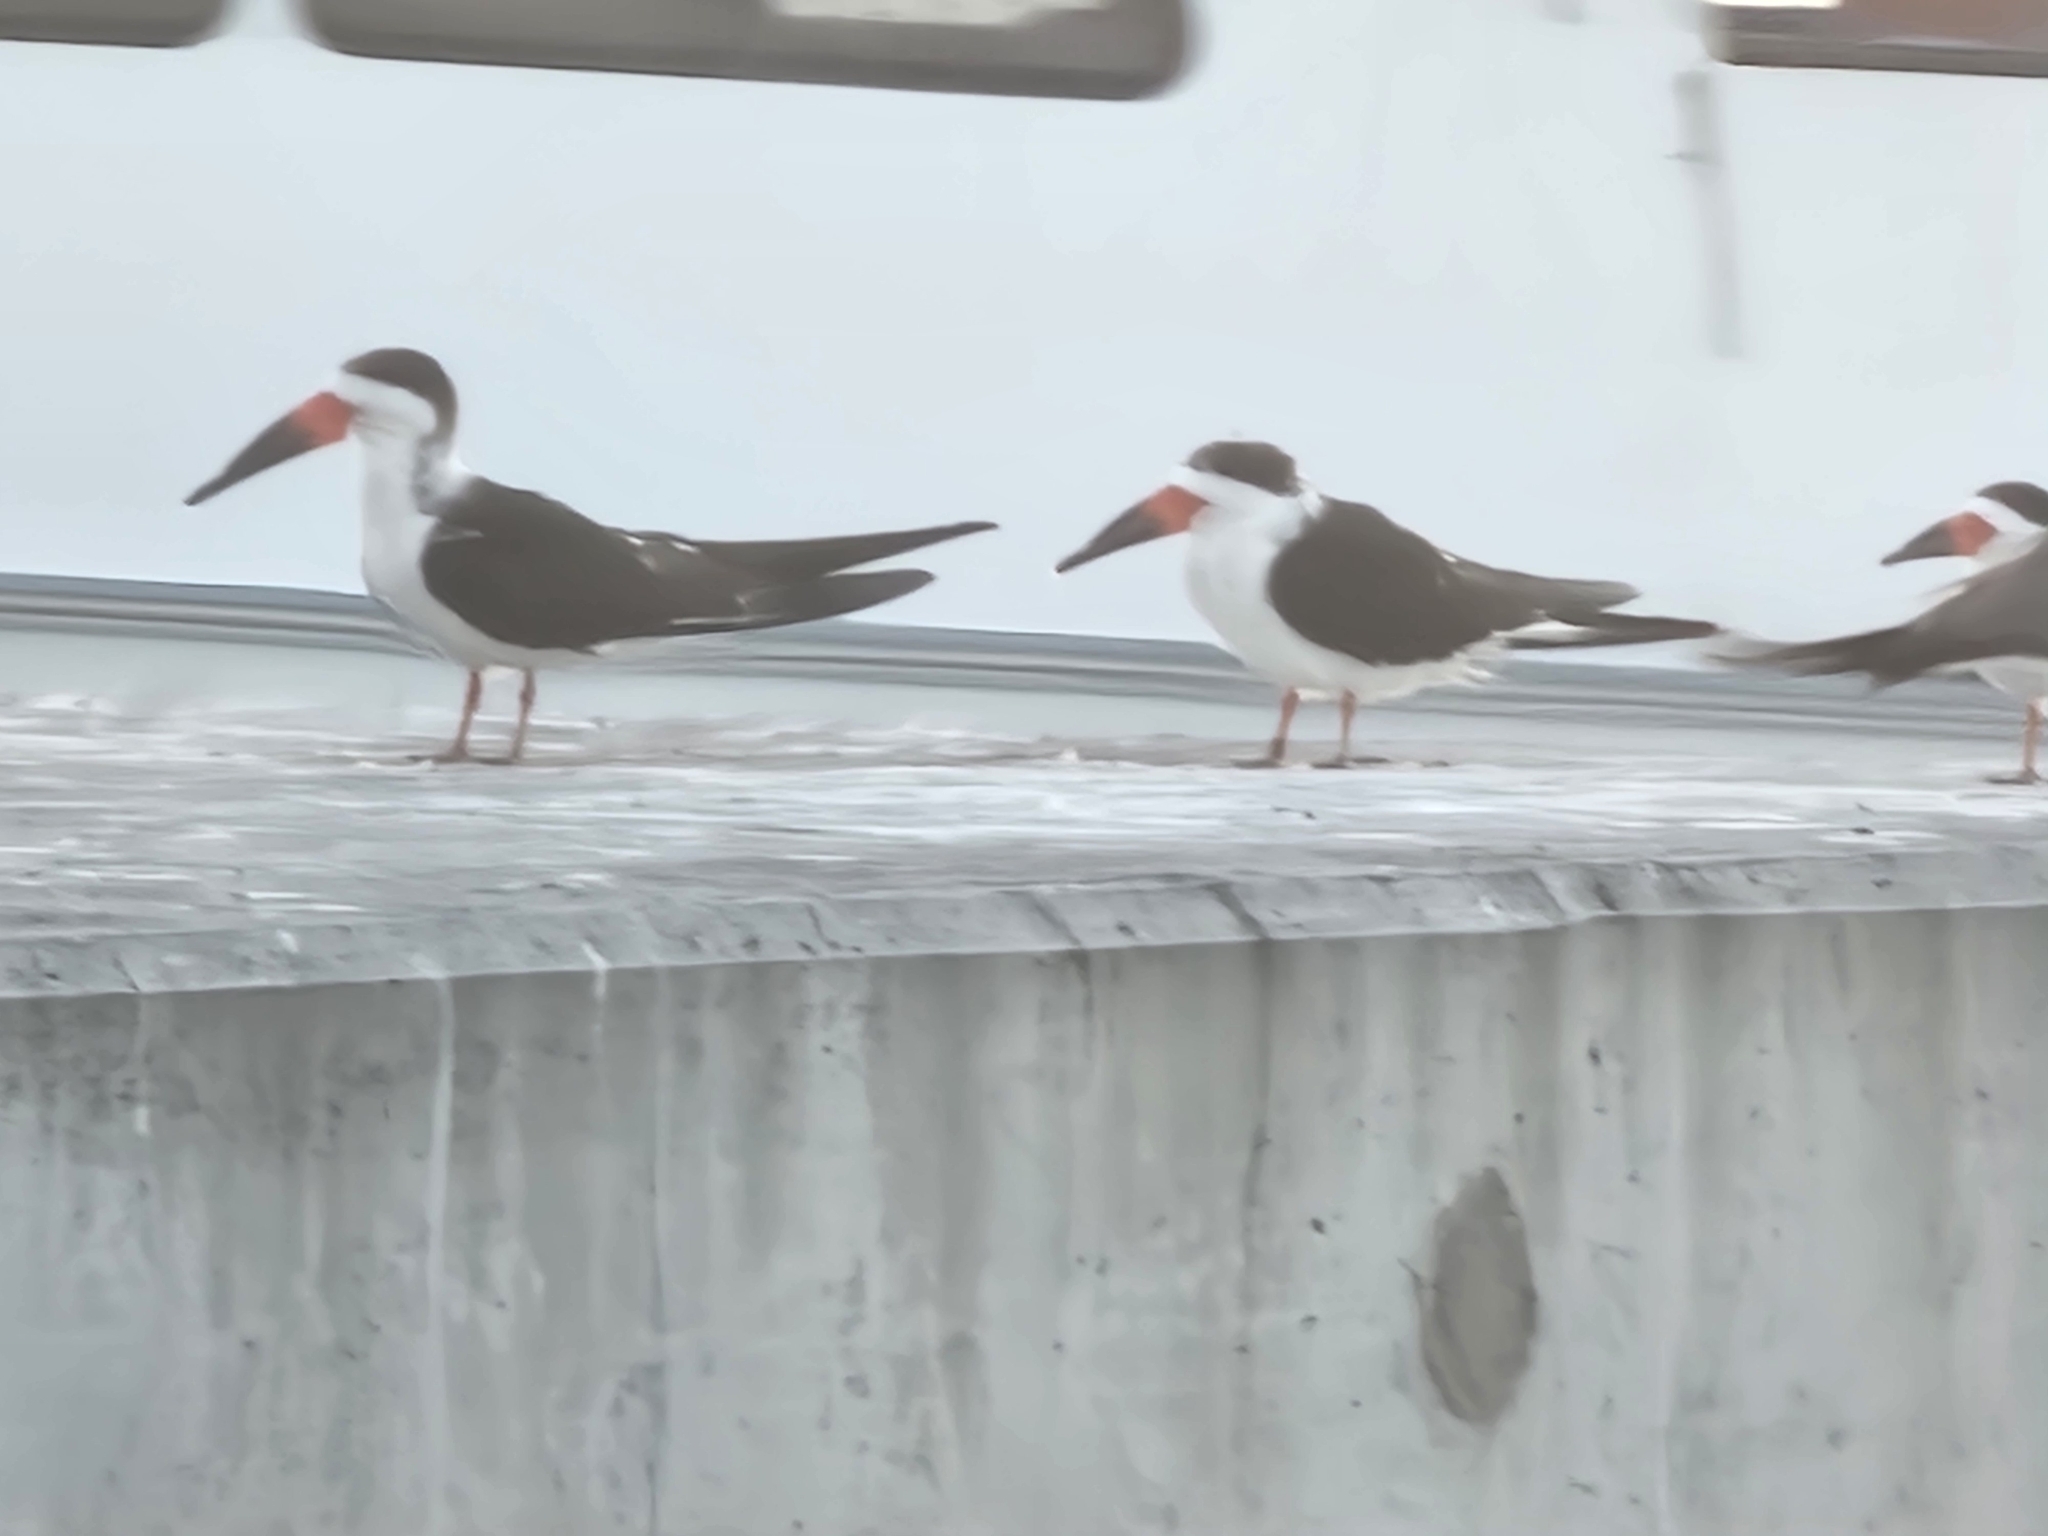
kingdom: Animalia
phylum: Chordata
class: Aves
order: Charadriiformes
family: Laridae
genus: Rynchops
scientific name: Rynchops niger
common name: Black skimmer
